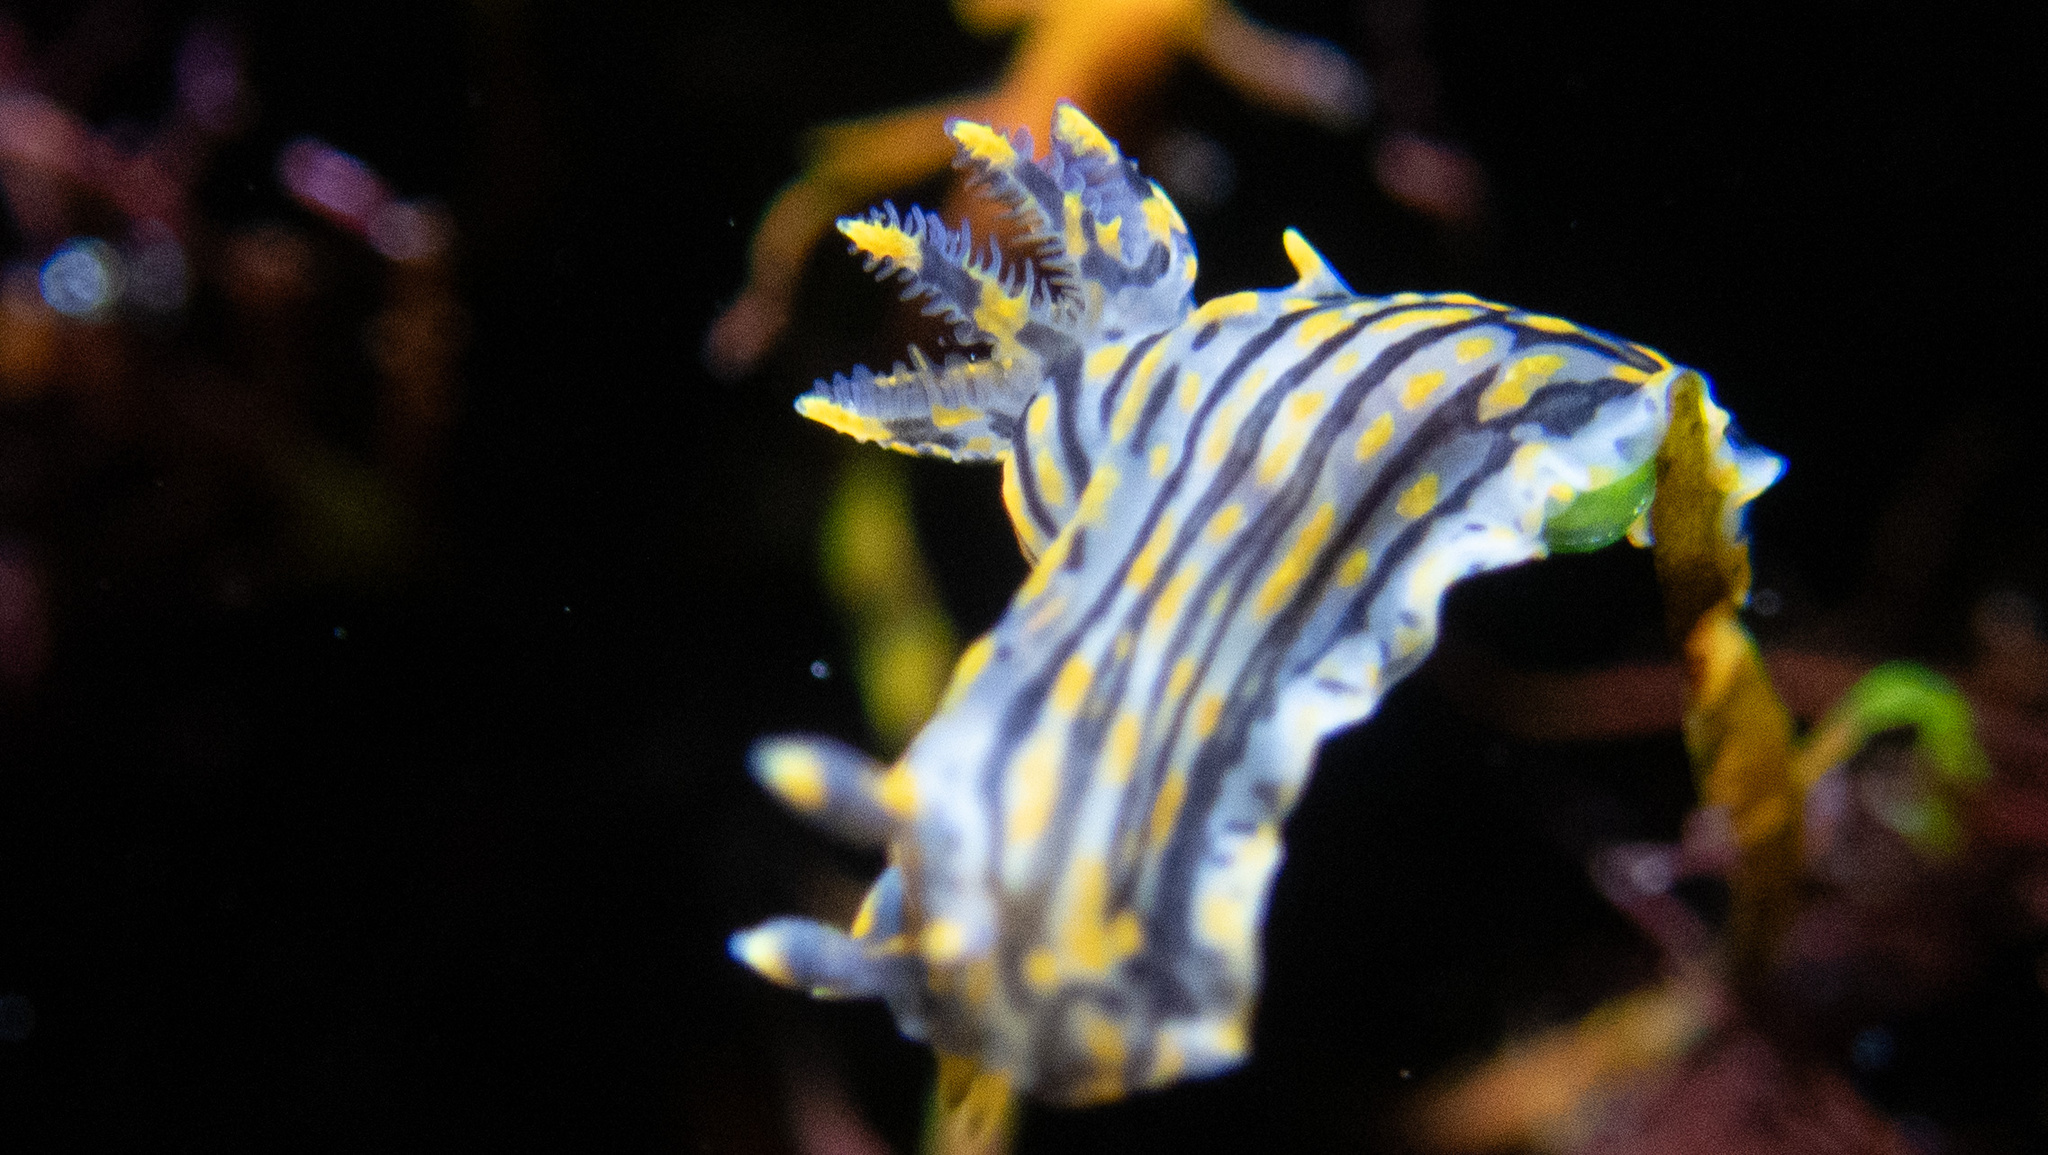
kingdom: Animalia
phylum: Mollusca
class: Gastropoda
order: Nudibranchia
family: Polyceridae
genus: Polycera
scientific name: Polycera atra
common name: Orange-spike polycera
